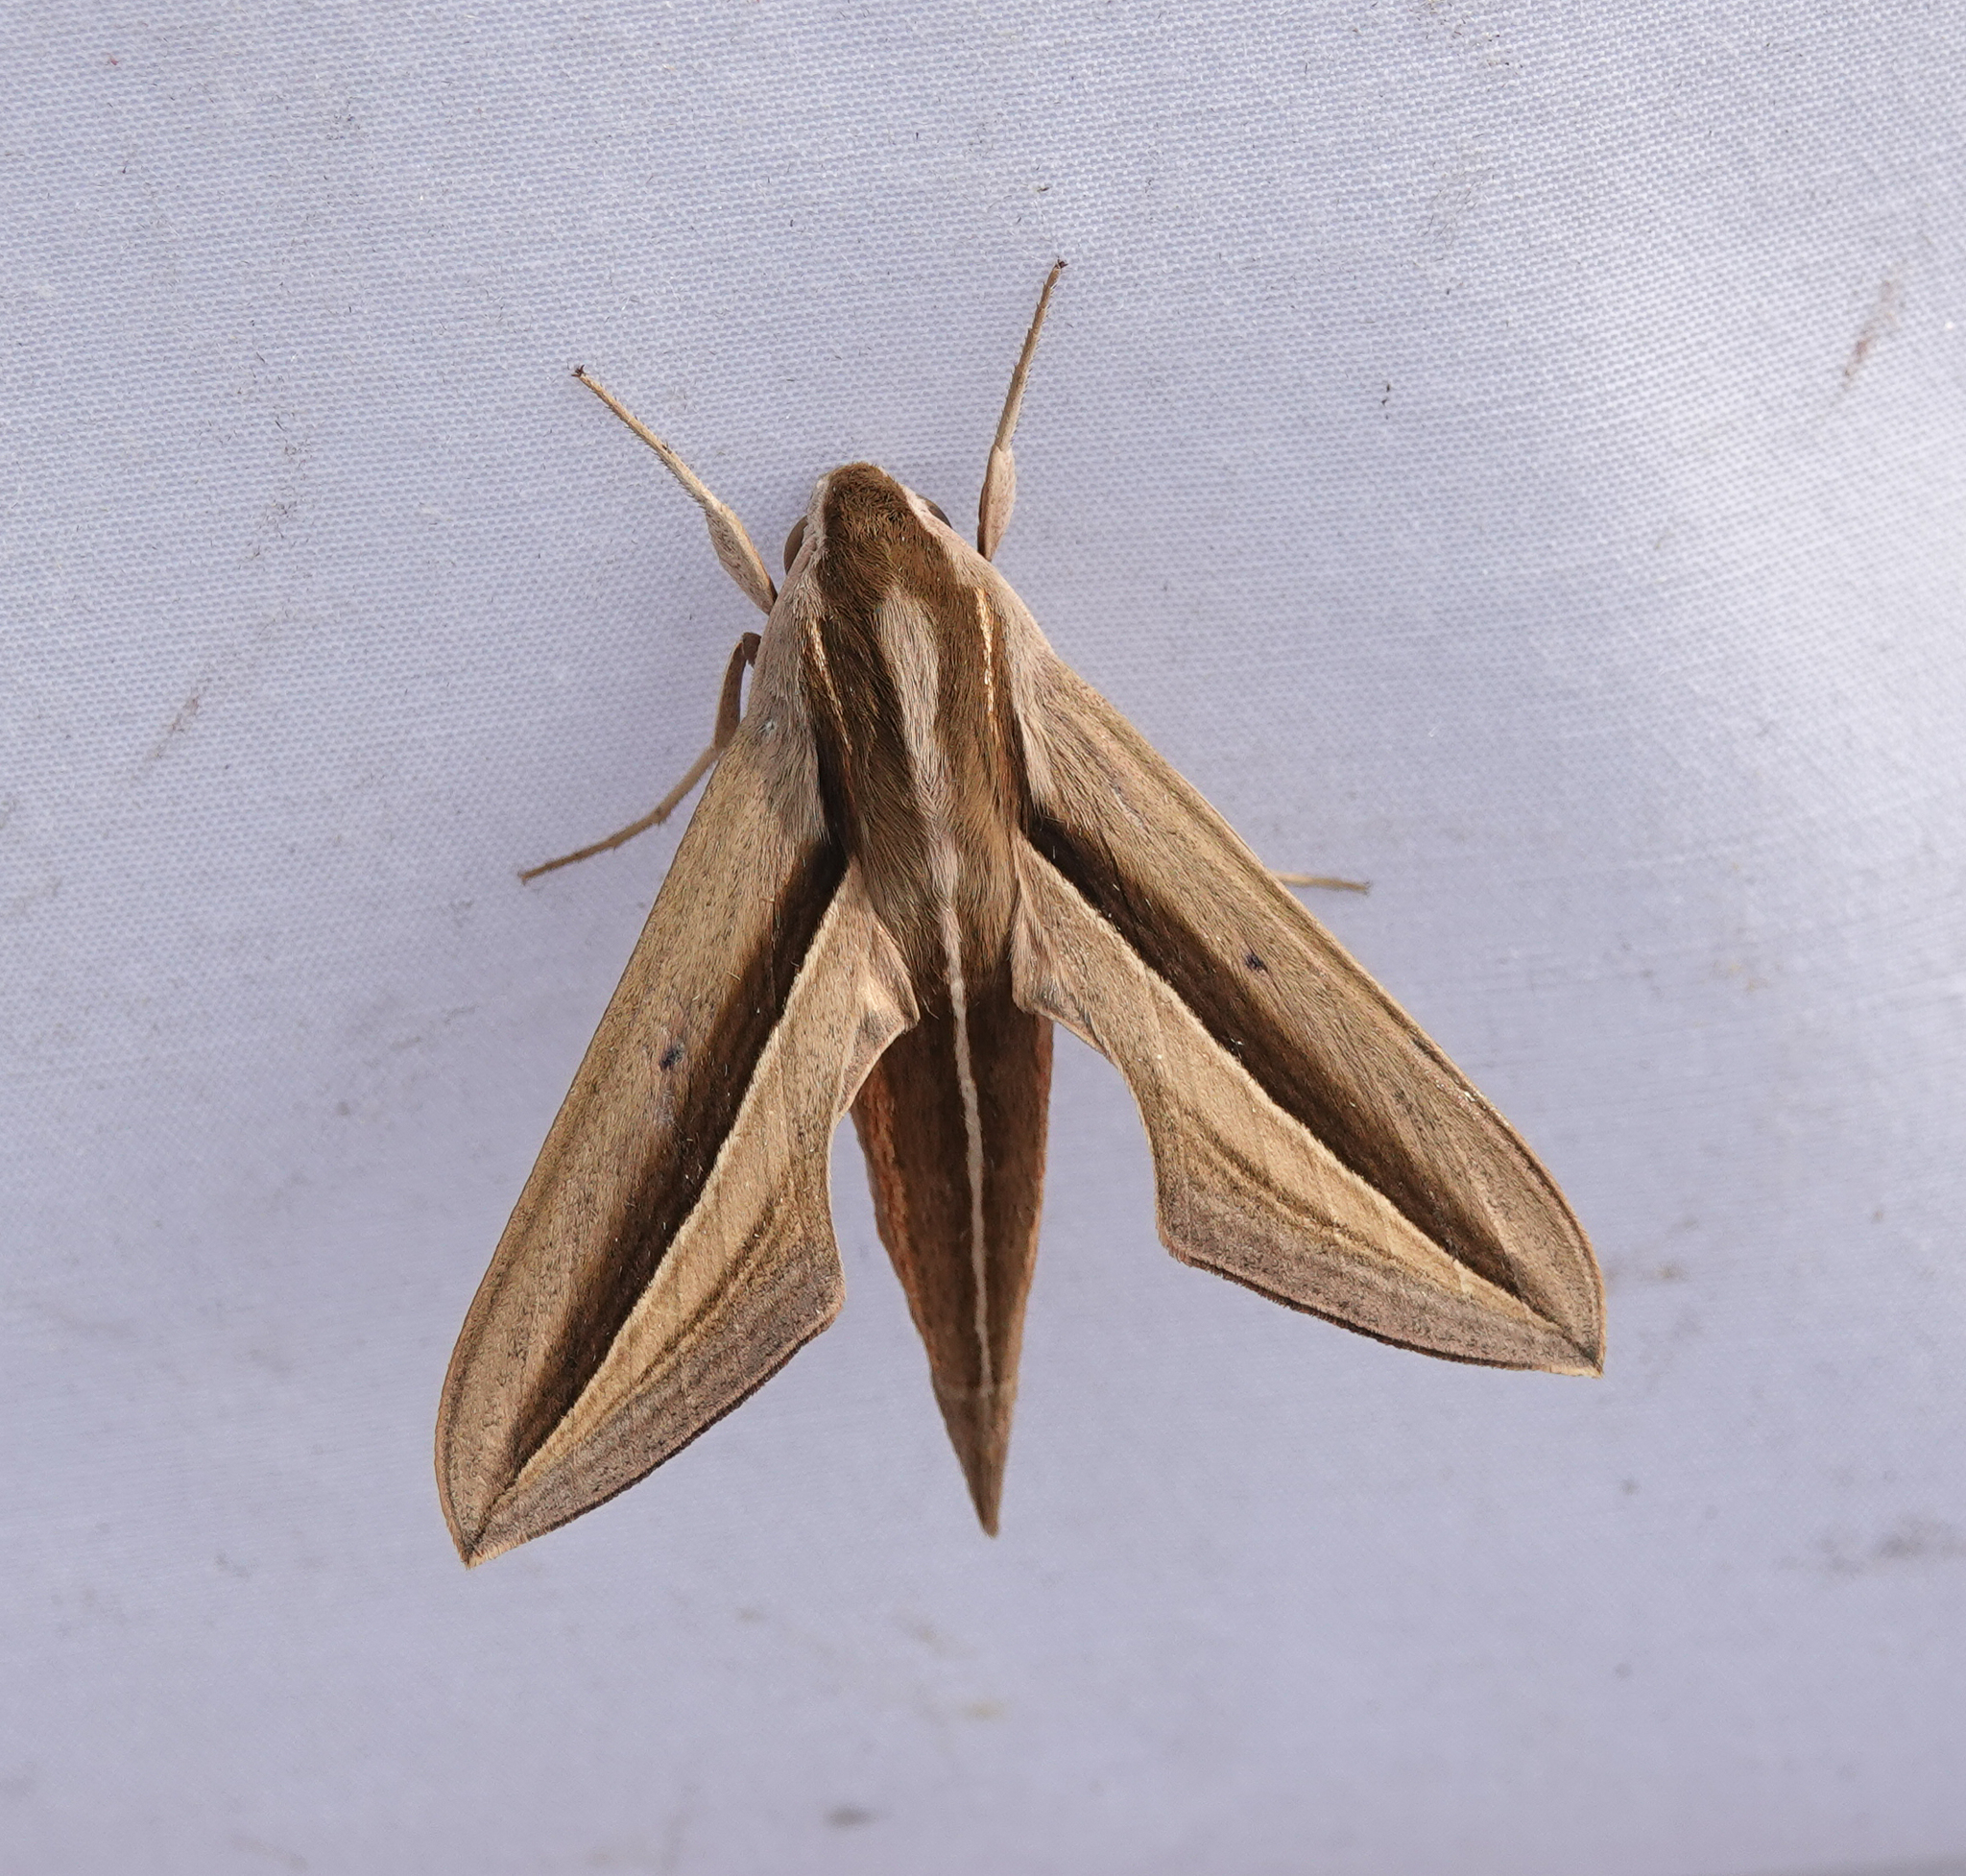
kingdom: Animalia
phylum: Arthropoda
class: Insecta
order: Lepidoptera
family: Sphingidae
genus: Theretra
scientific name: Theretra silhetensis
